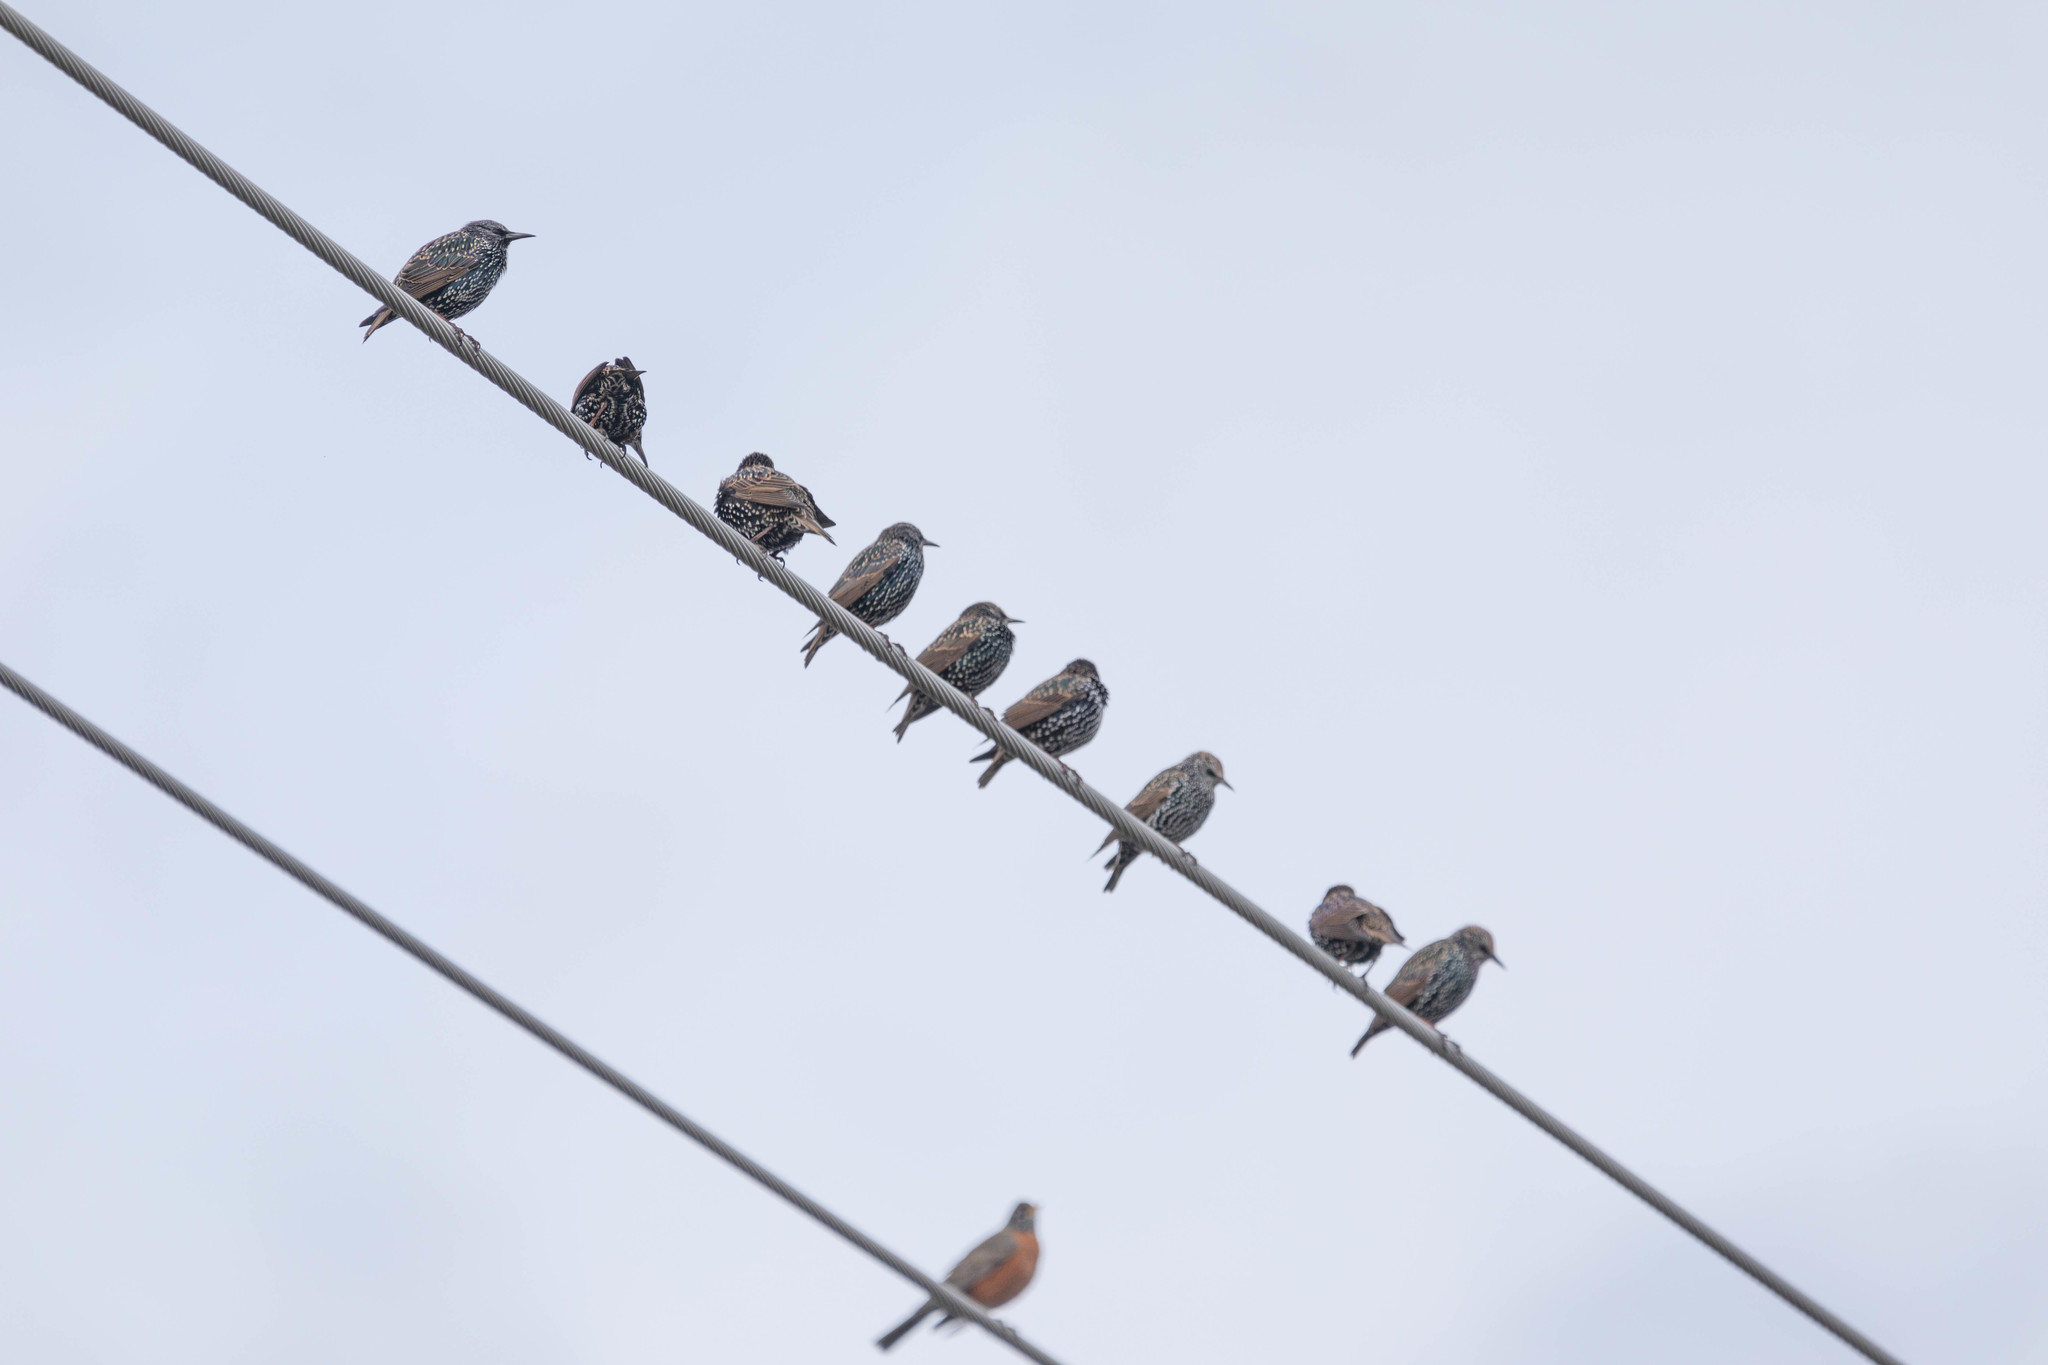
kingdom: Animalia
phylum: Chordata
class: Aves
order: Passeriformes
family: Sturnidae
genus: Sturnus
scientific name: Sturnus vulgaris
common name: Common starling
